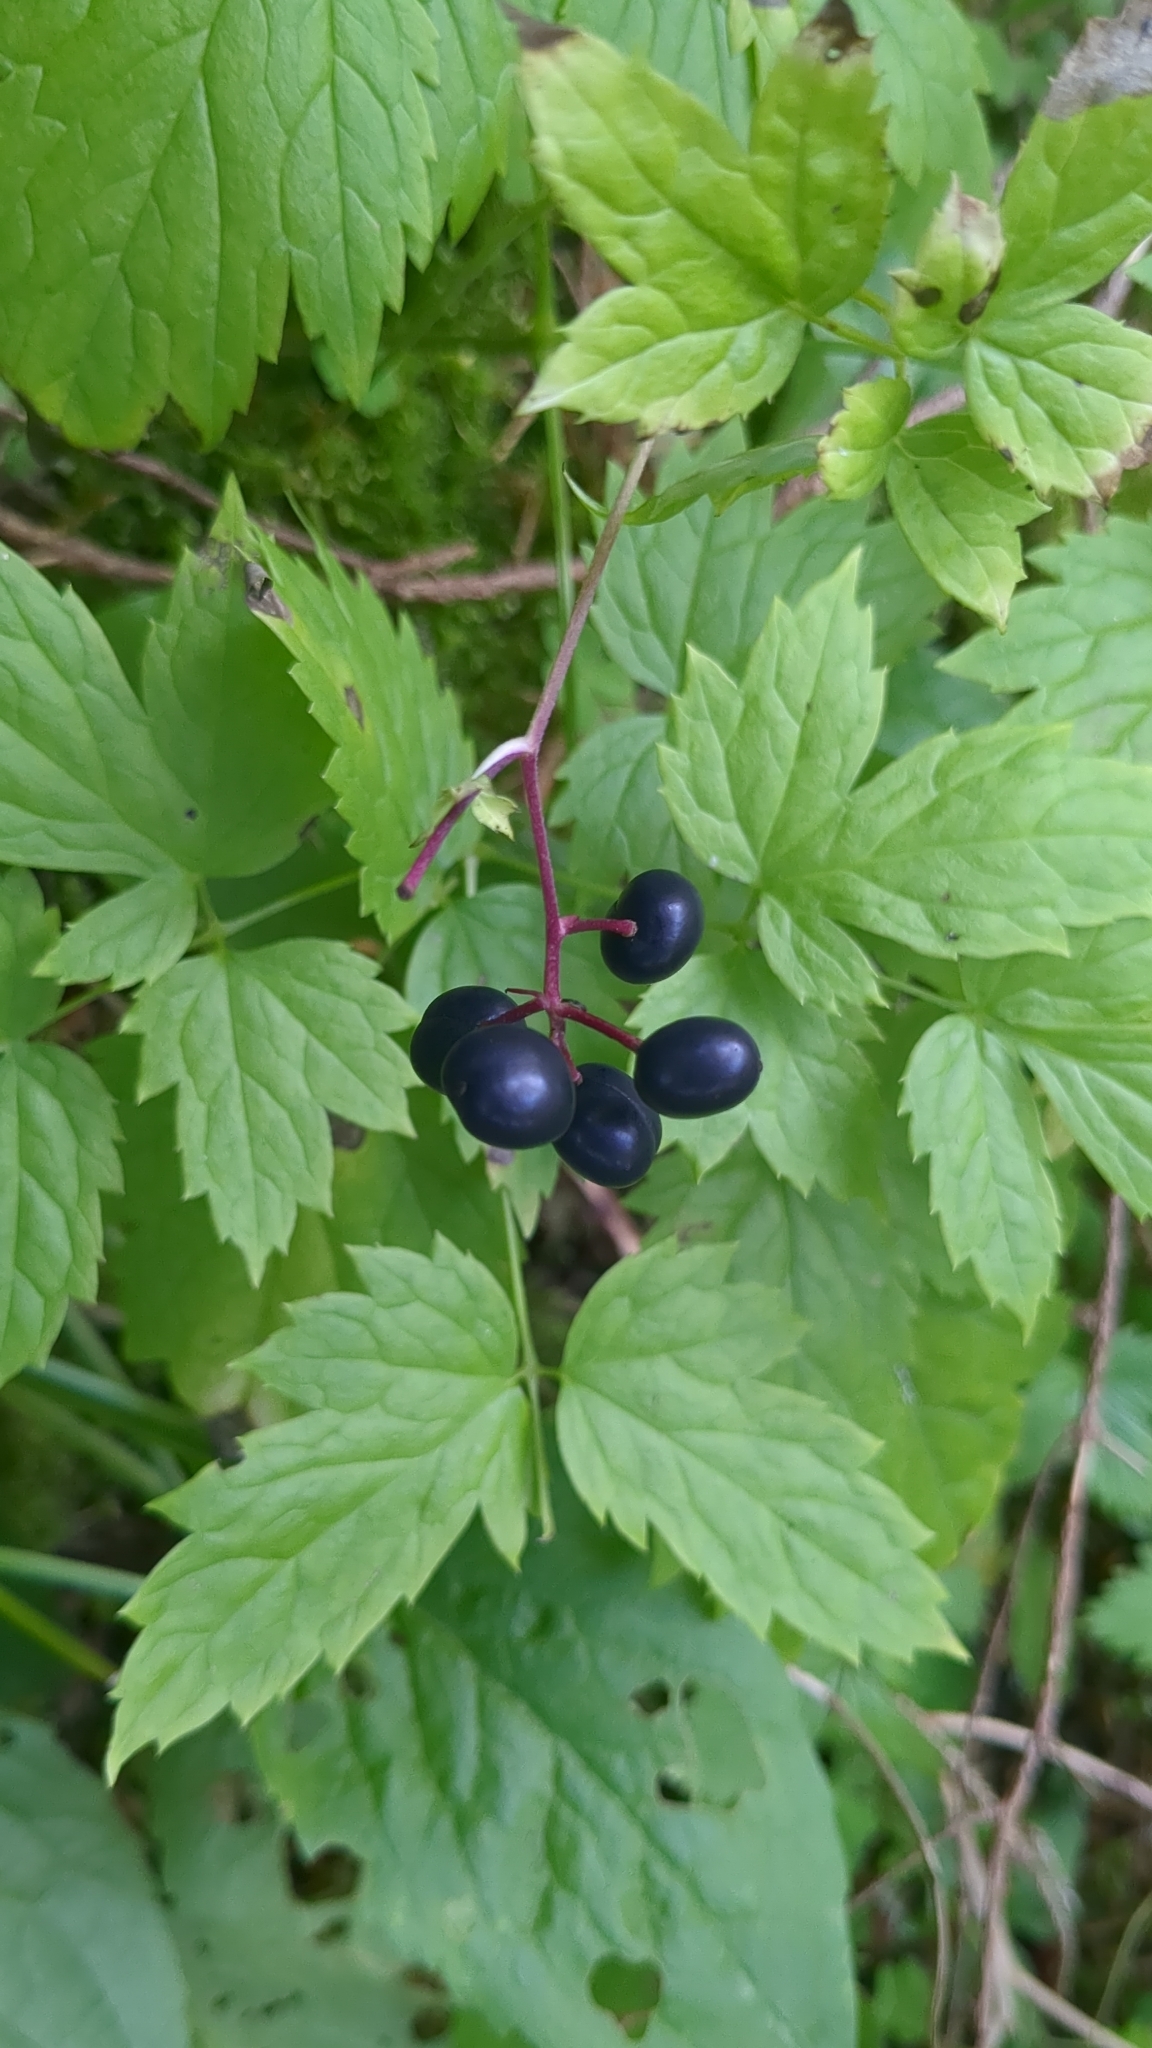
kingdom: Plantae
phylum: Tracheophyta
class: Magnoliopsida
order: Ranunculales
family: Ranunculaceae
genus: Actaea
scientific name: Actaea spicata
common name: Baneberry
